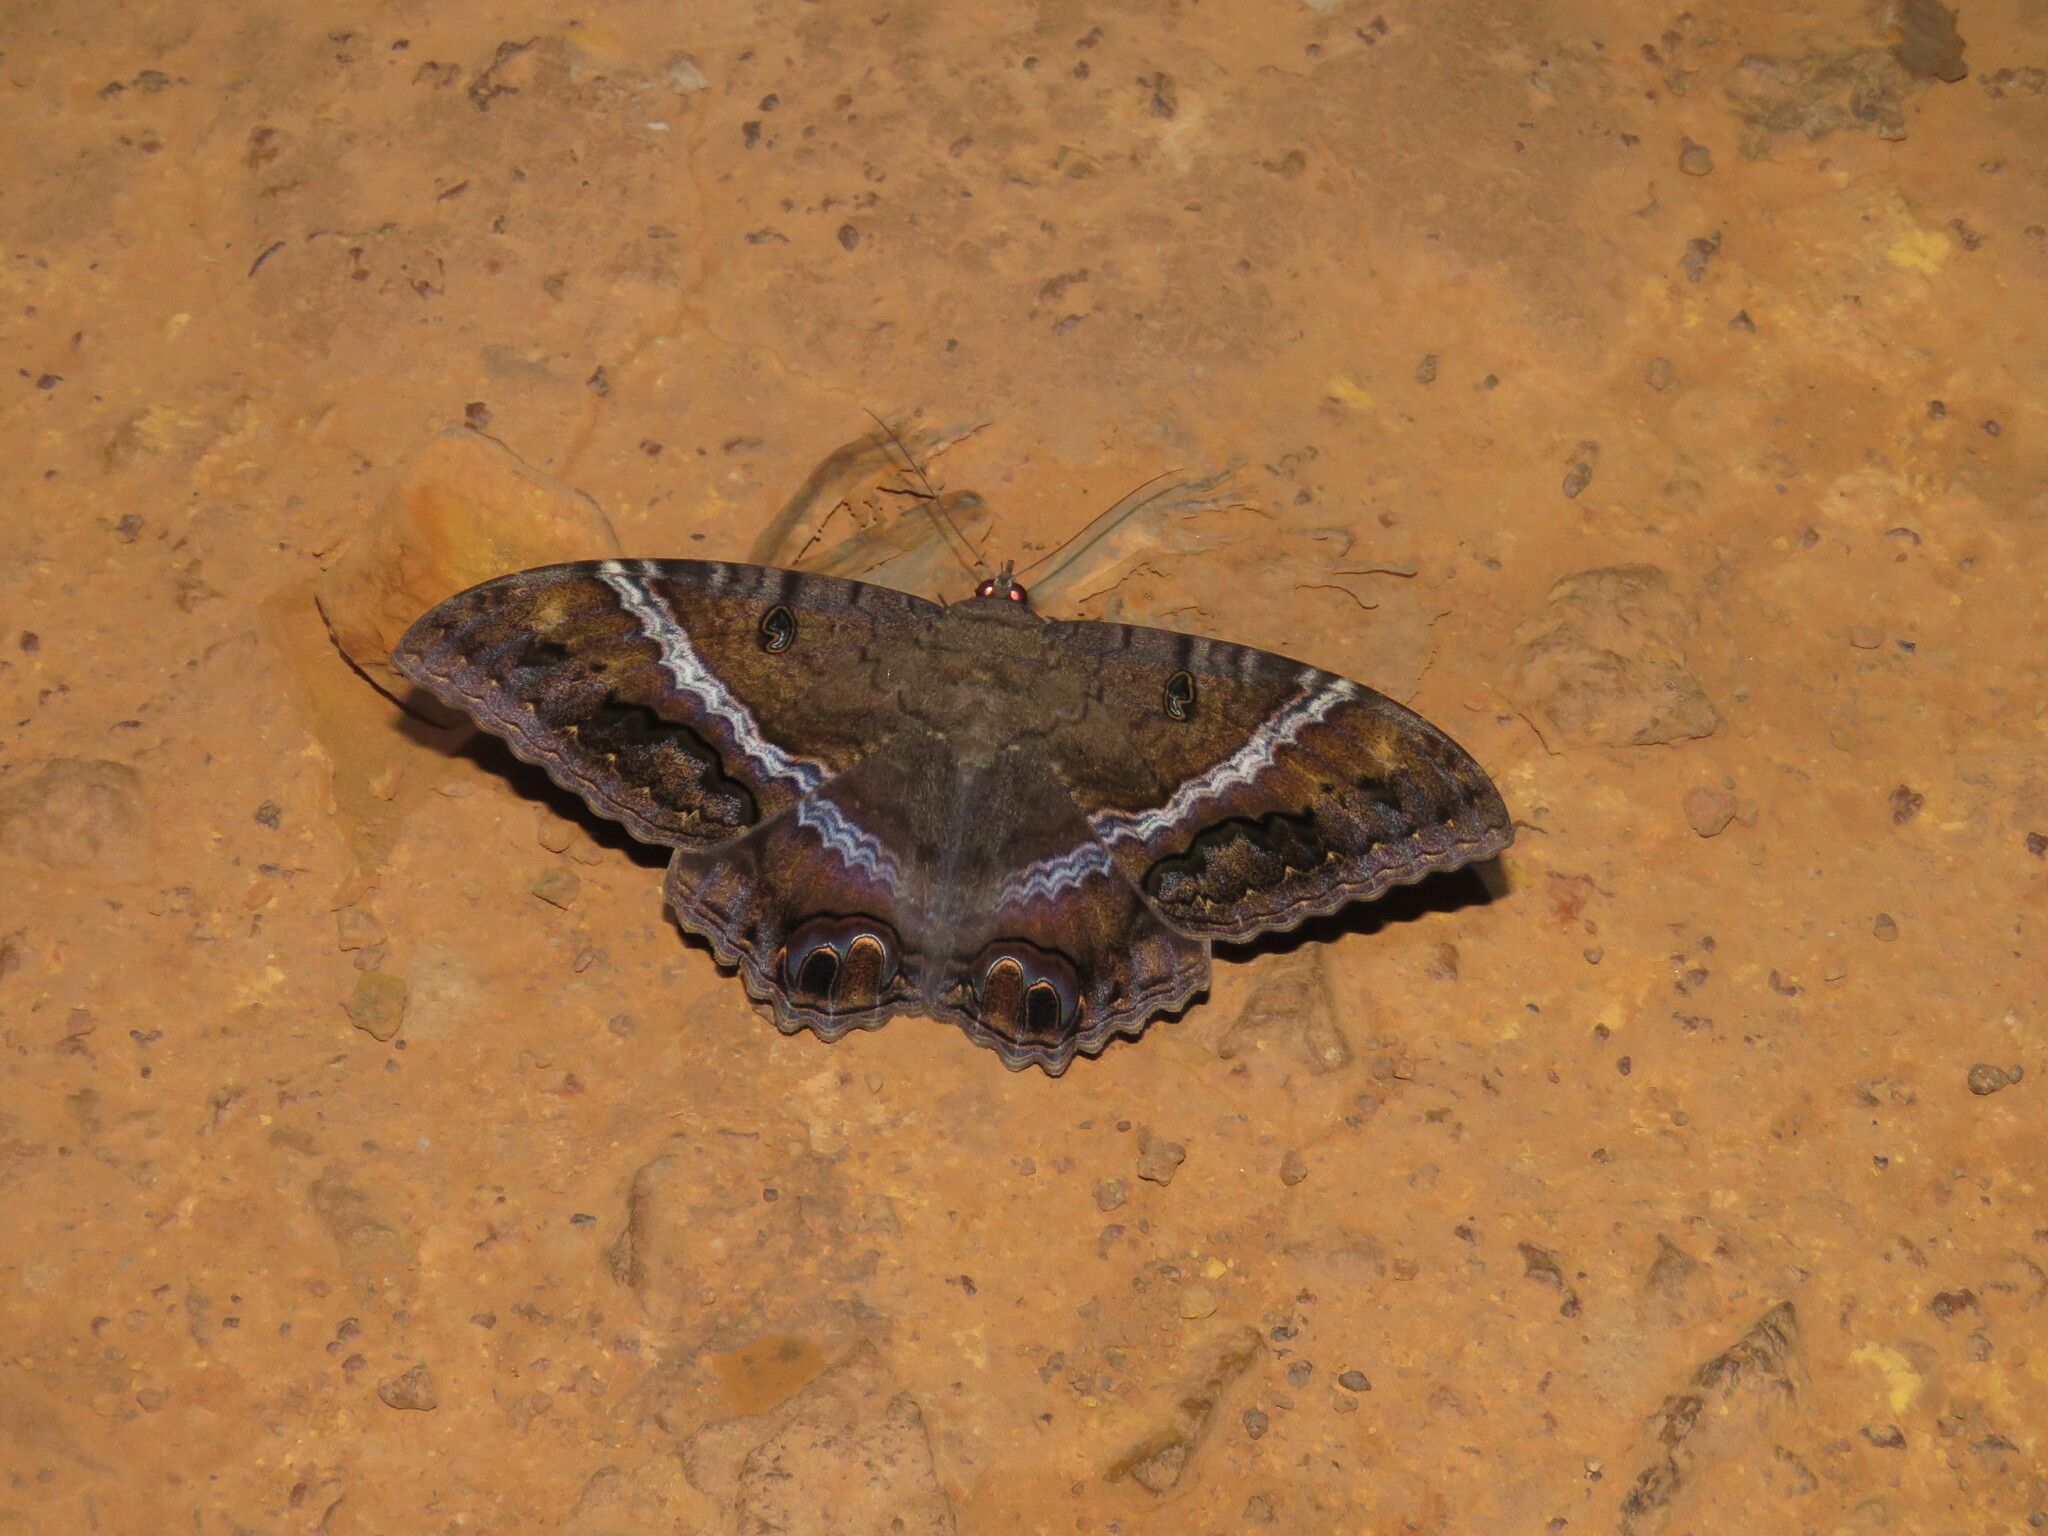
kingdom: Animalia
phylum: Arthropoda
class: Insecta
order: Lepidoptera
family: Erebidae
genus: Ascalapha
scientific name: Ascalapha odorata
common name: Black witch
